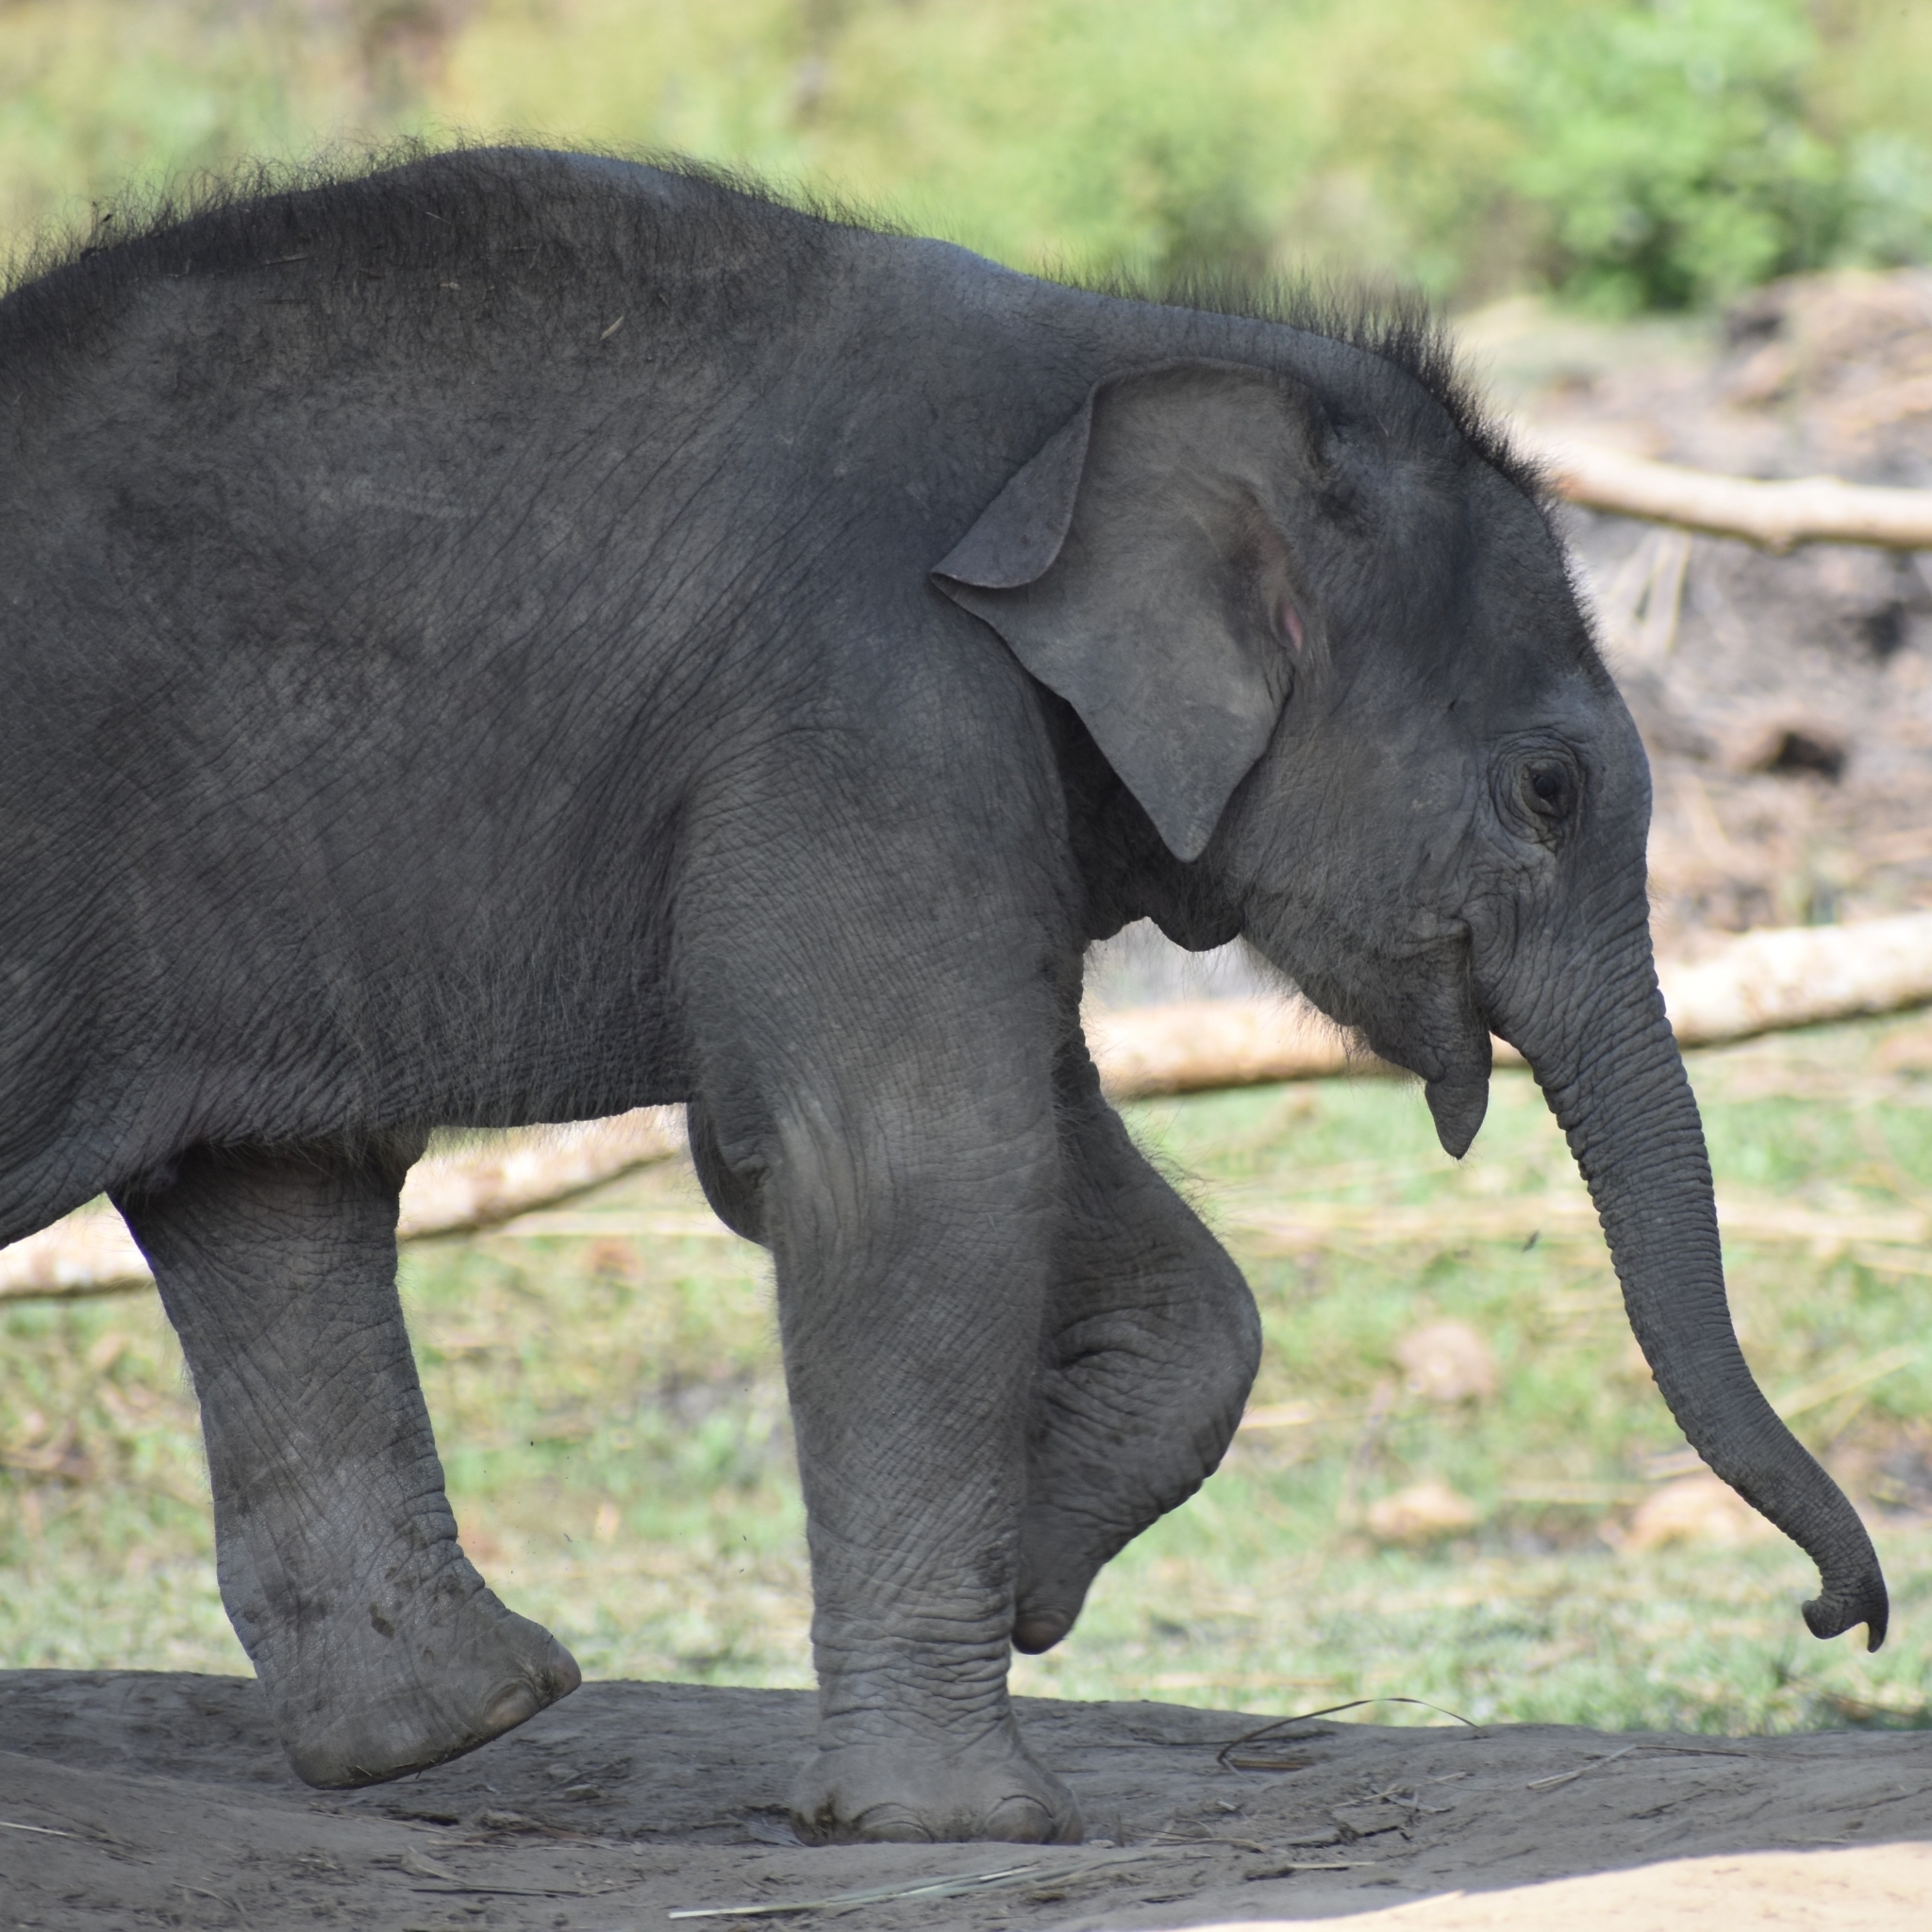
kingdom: Animalia
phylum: Chordata
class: Mammalia
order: Proboscidea
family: Elephantidae
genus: Elephas
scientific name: Elephas maximus
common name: Asian elephant
